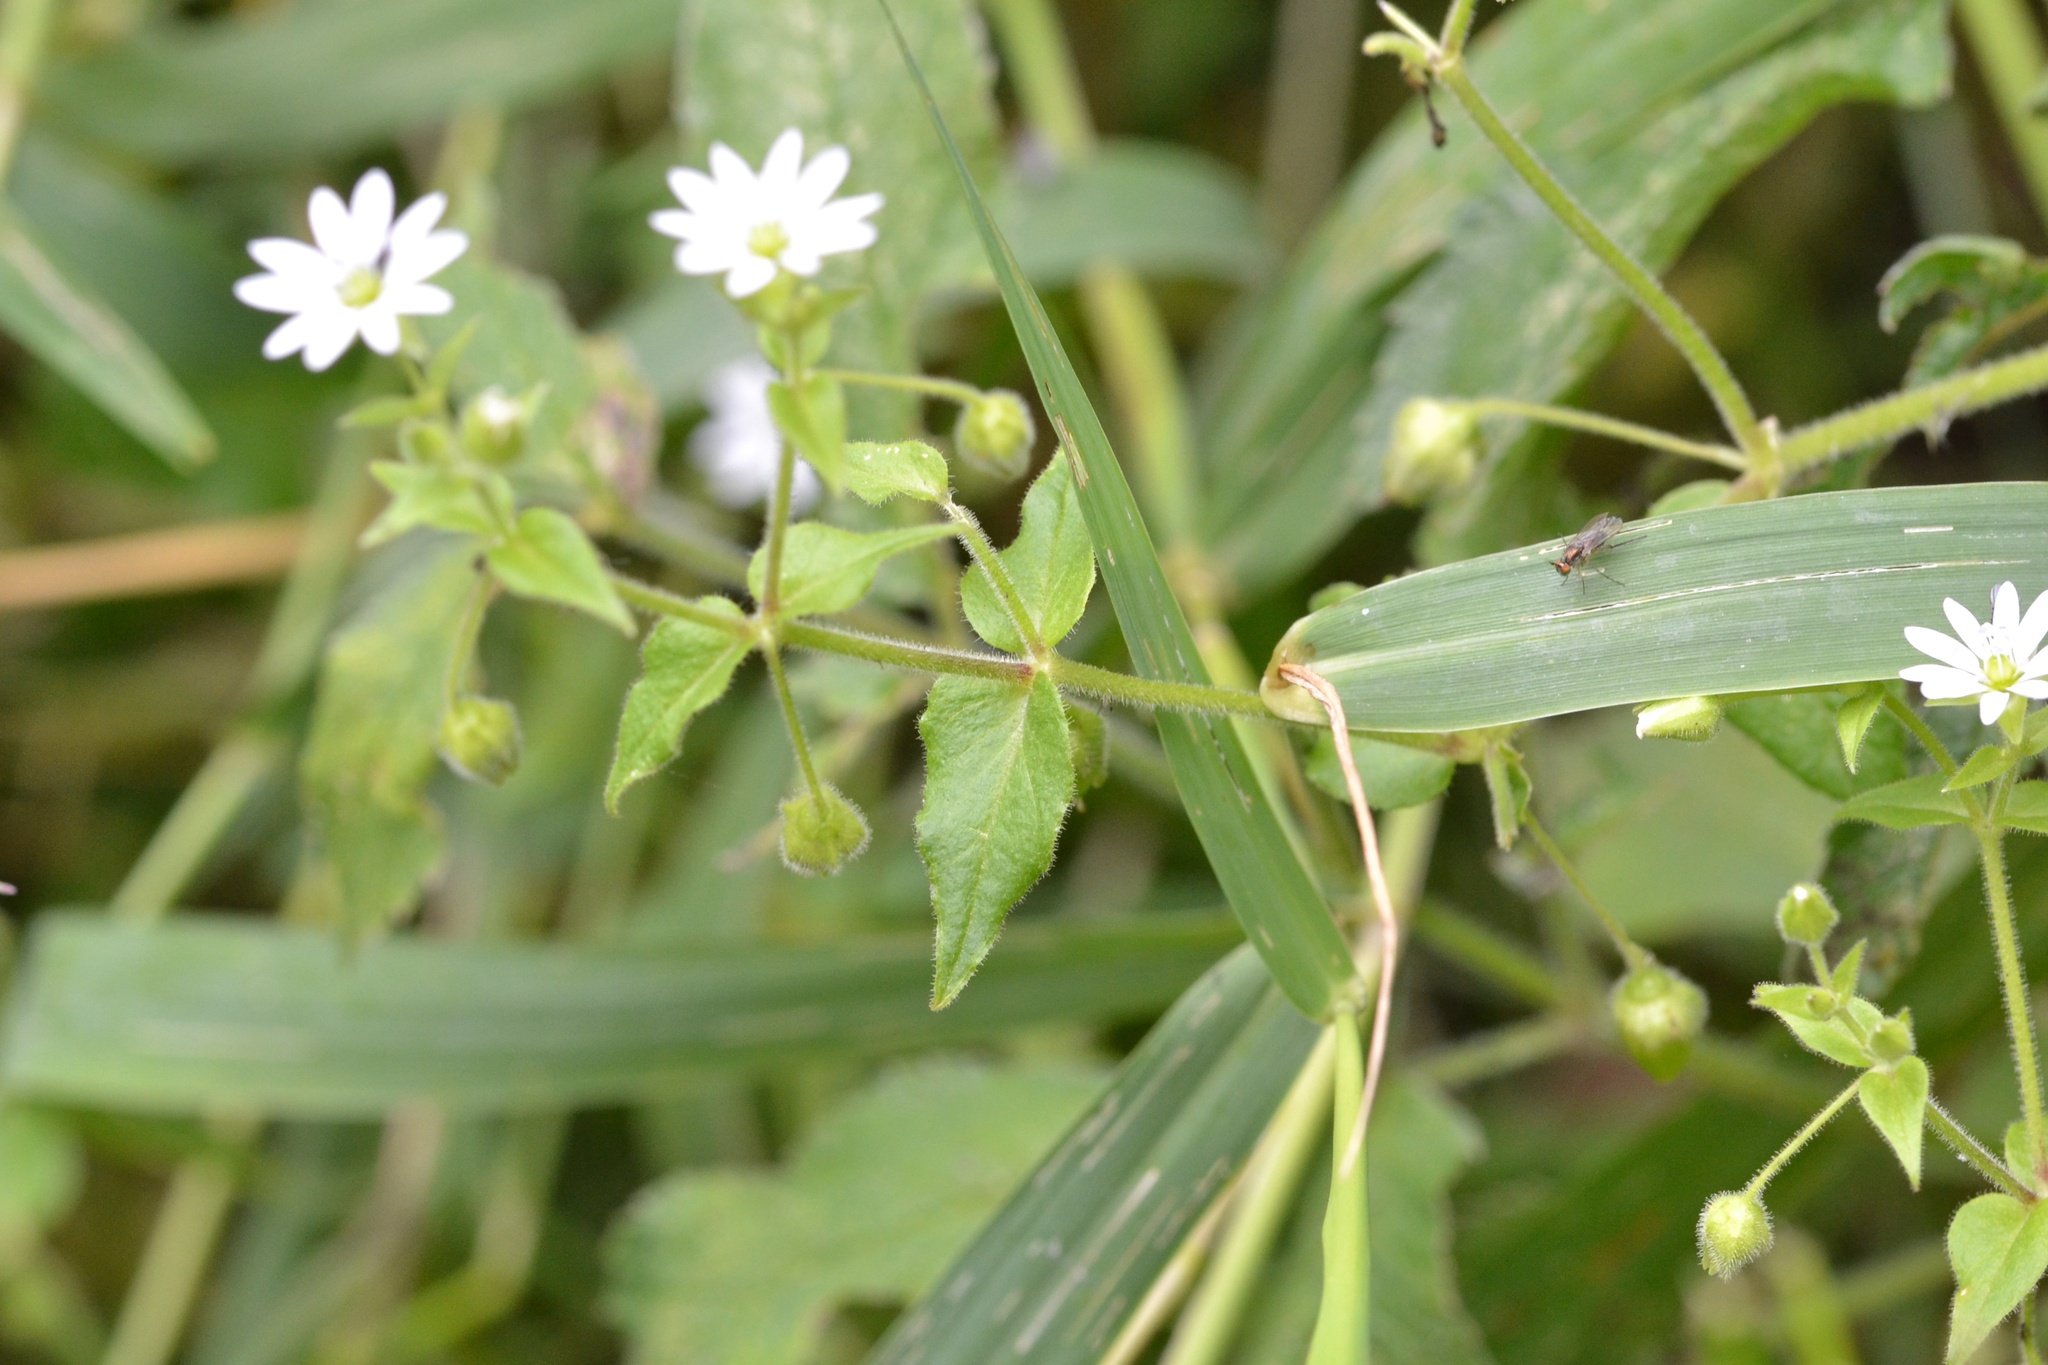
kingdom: Plantae
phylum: Tracheophyta
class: Magnoliopsida
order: Caryophyllales
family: Caryophyllaceae
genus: Stellaria
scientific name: Stellaria aquatica
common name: Water chickweed
